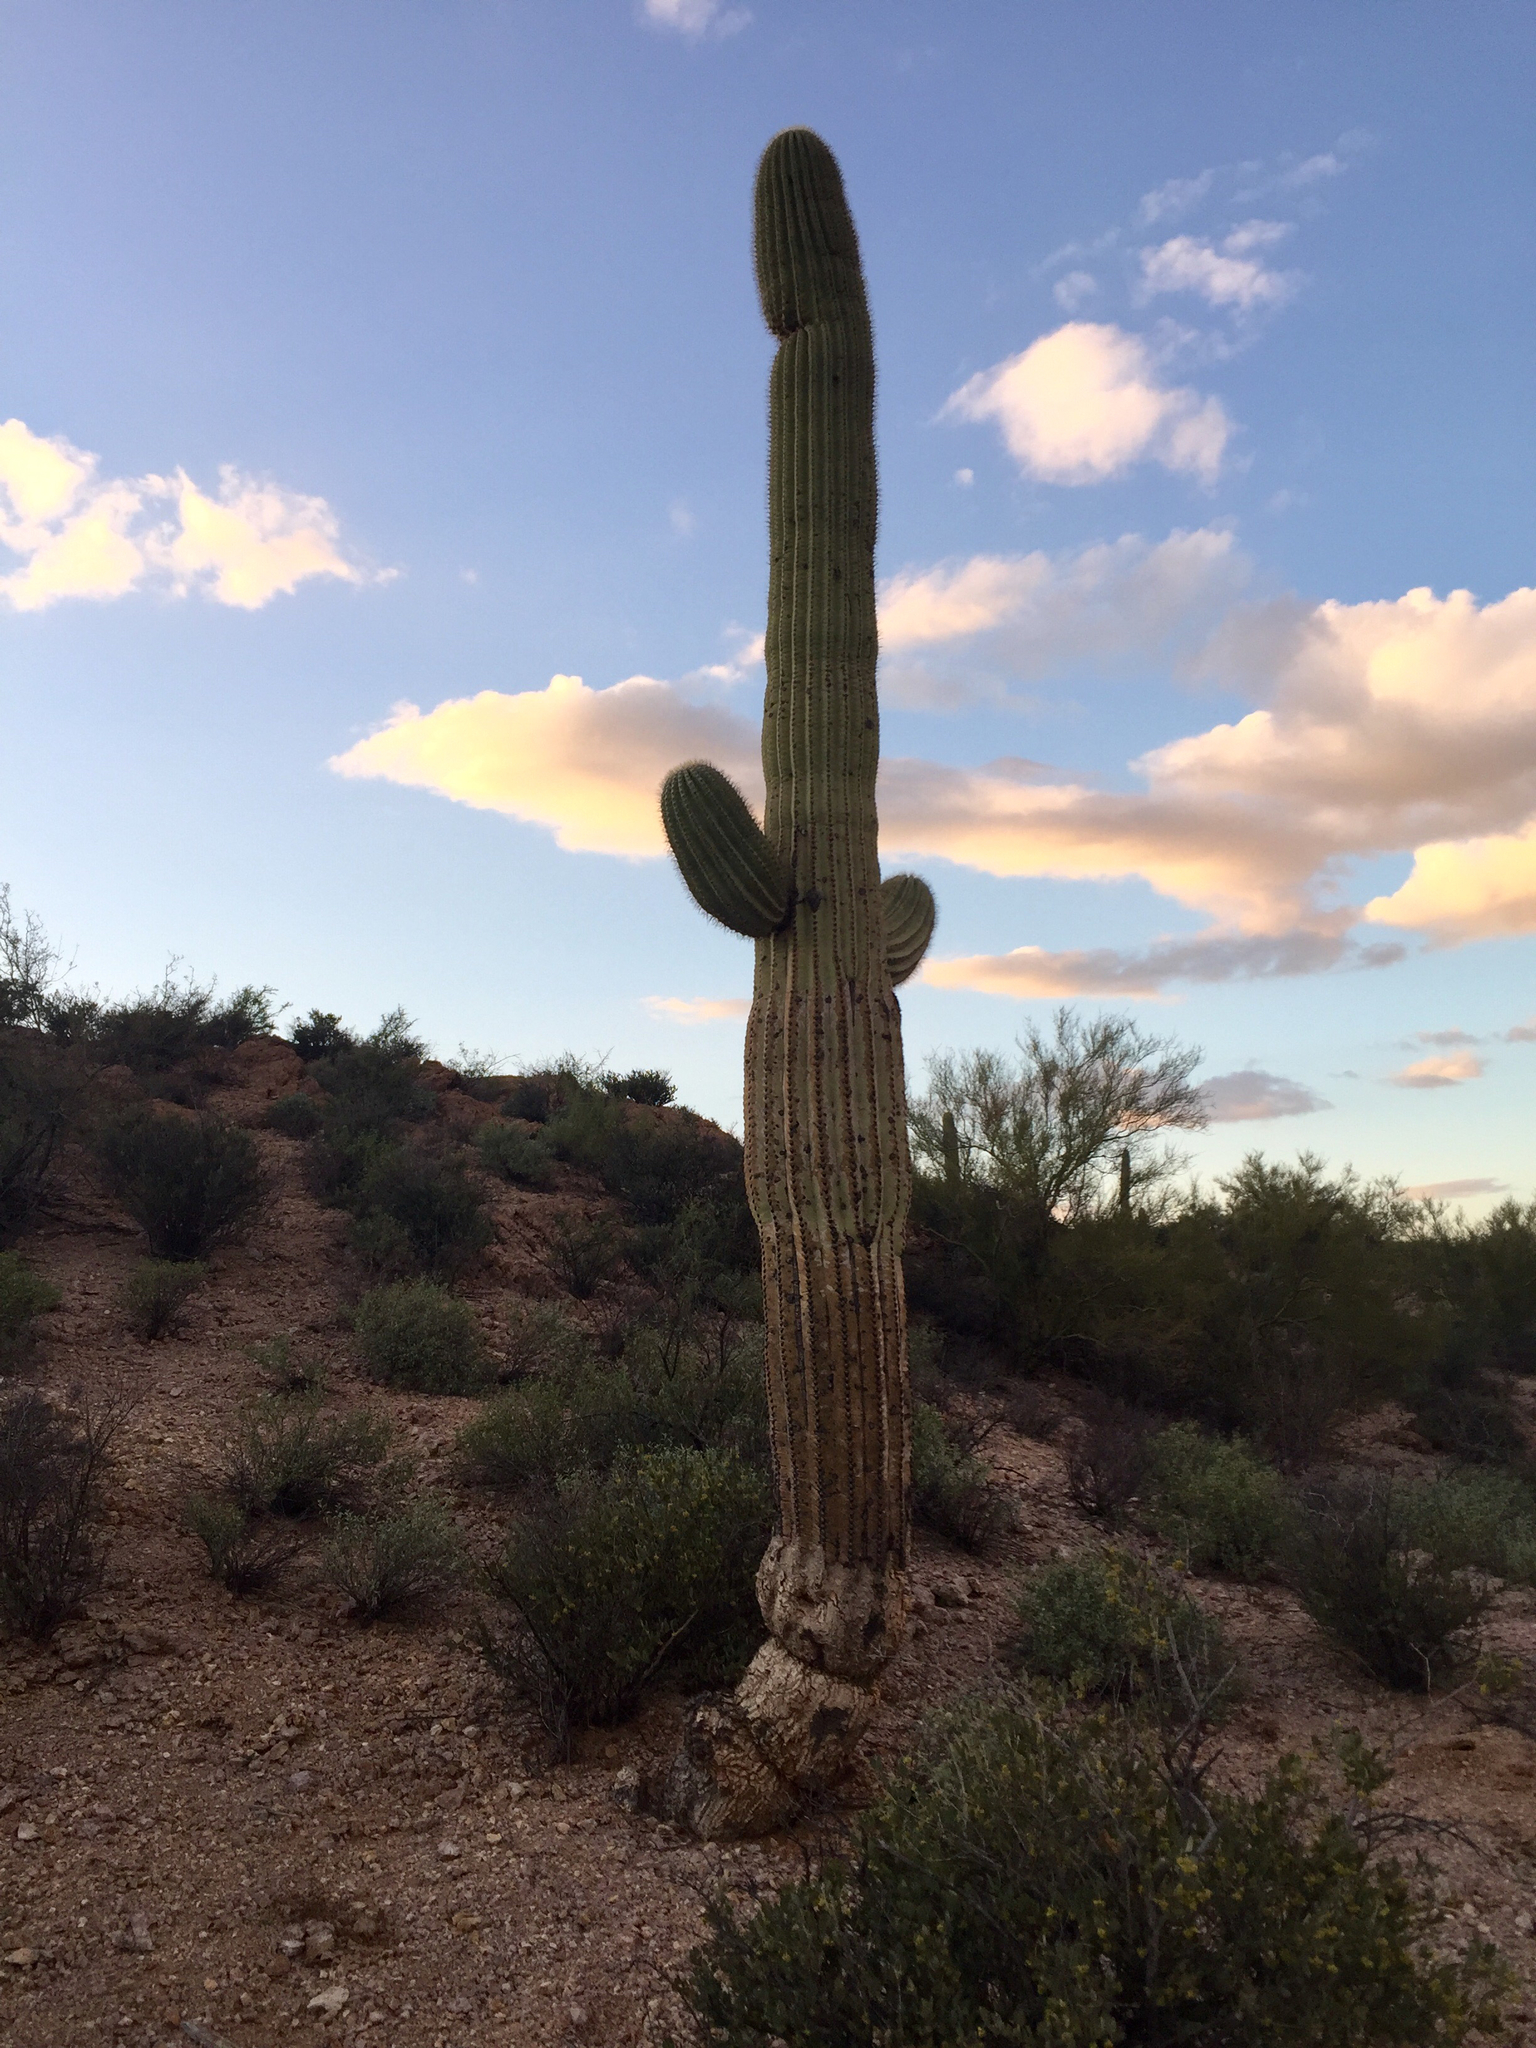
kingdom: Plantae
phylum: Tracheophyta
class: Magnoliopsida
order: Caryophyllales
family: Cactaceae
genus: Carnegiea
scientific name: Carnegiea gigantea
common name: Saguaro
